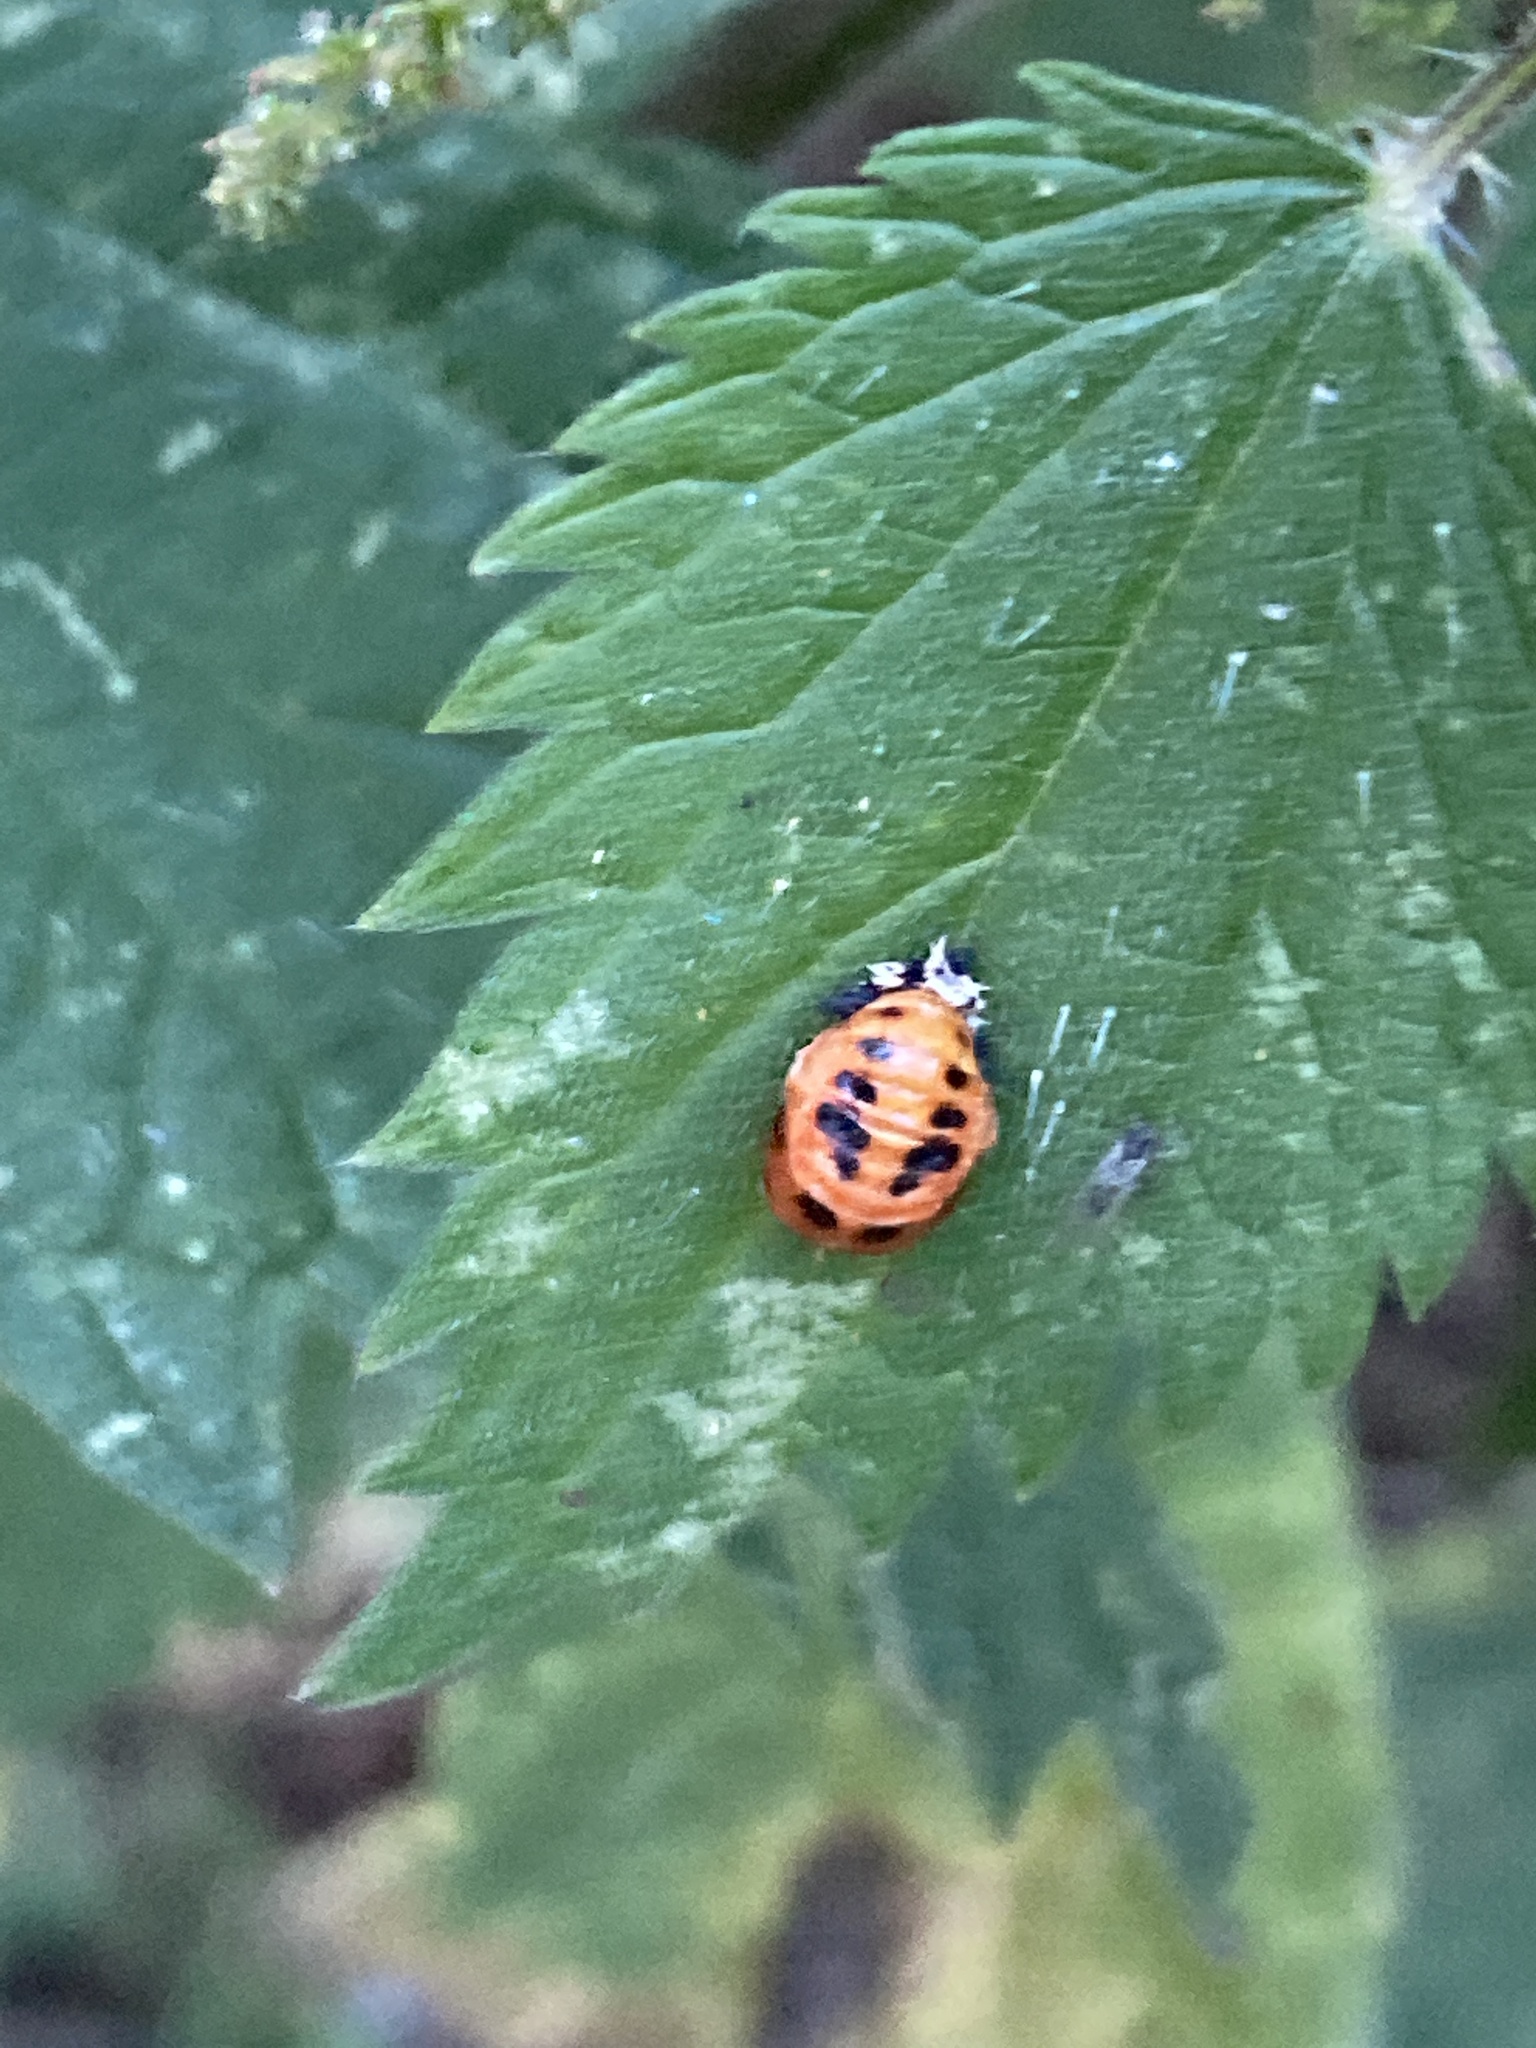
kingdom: Animalia
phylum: Arthropoda
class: Insecta
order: Coleoptera
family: Coccinellidae
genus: Harmonia
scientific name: Harmonia axyridis
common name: Harlequin ladybird
